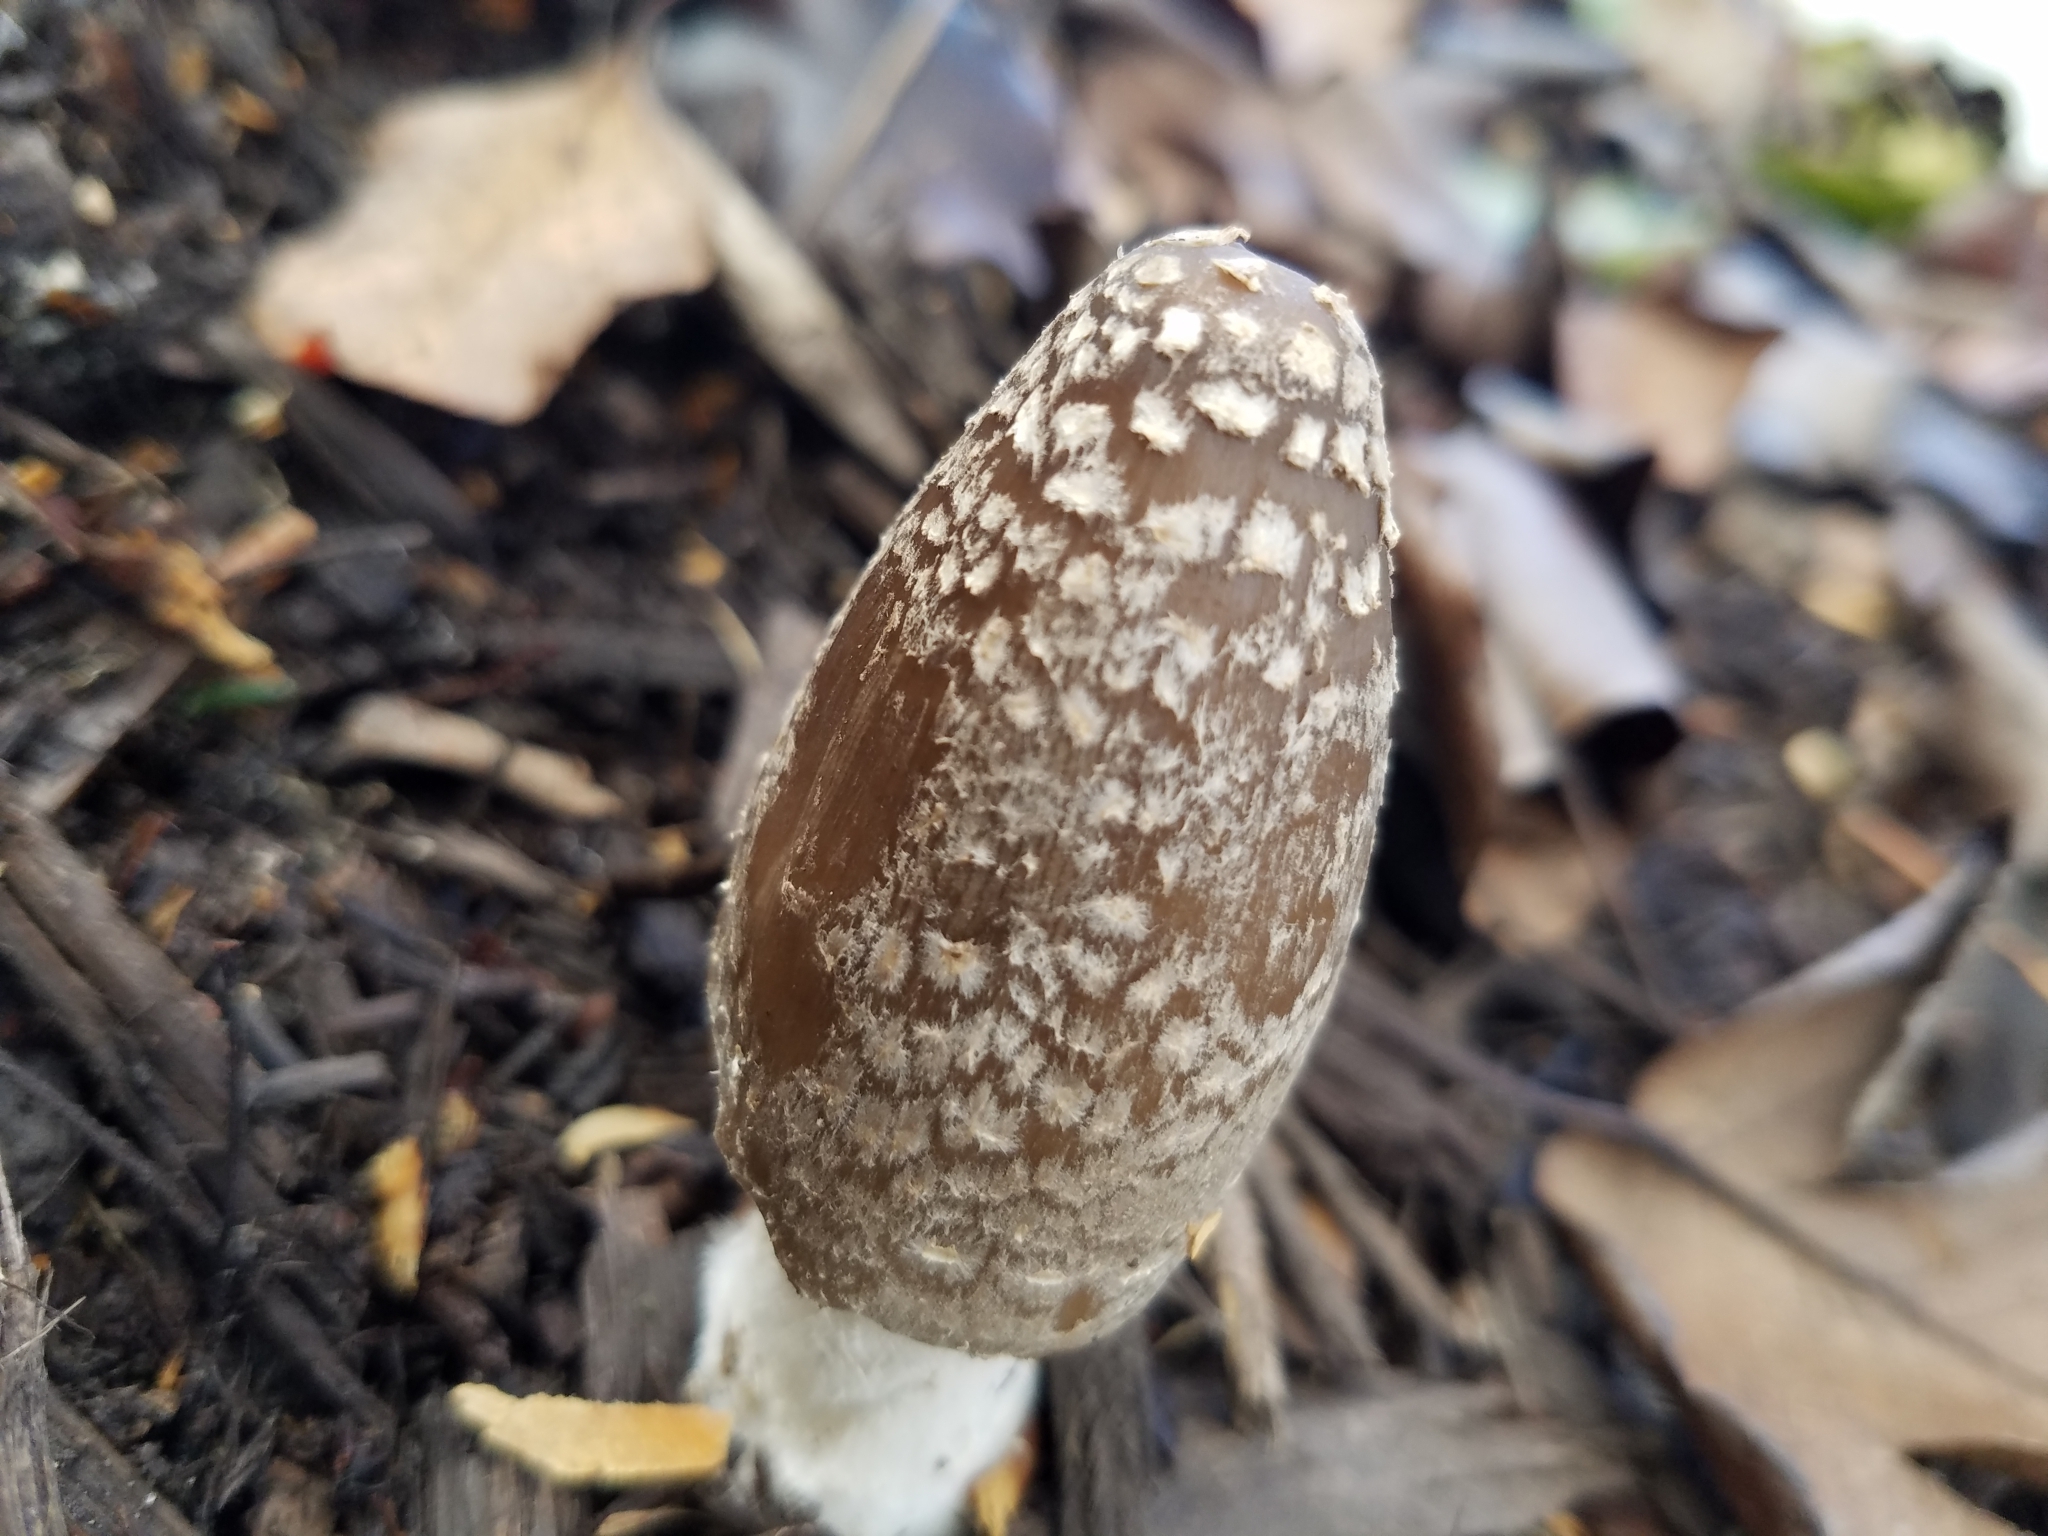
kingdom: Fungi
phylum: Basidiomycota
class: Agaricomycetes
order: Agaricales
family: Psathyrellaceae
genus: Coprinopsis
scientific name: Coprinopsis picacea
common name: Magpie inkcap
